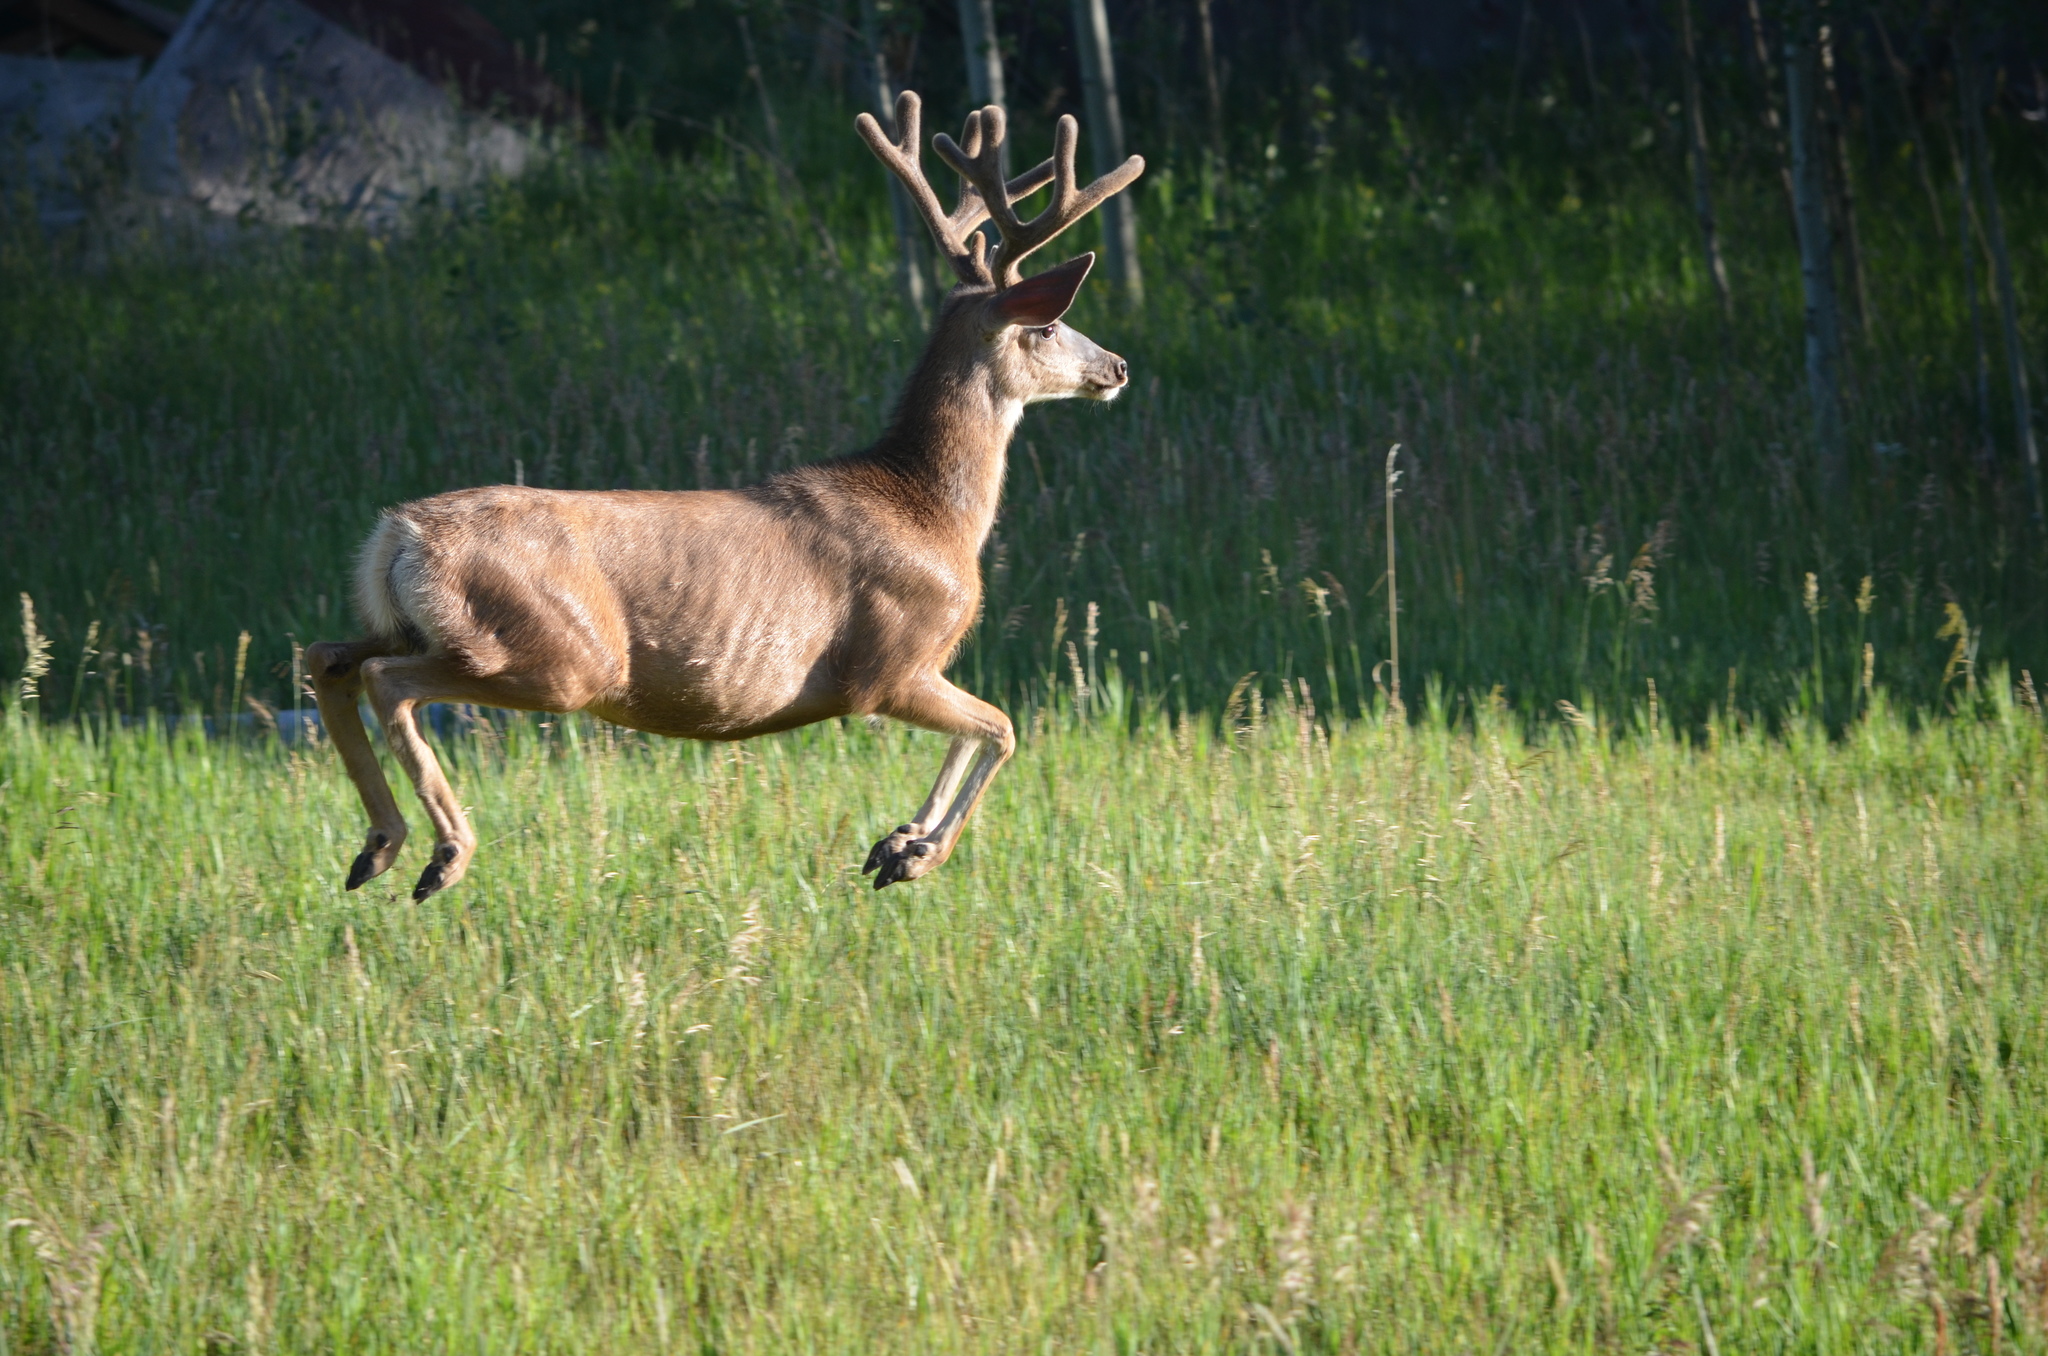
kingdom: Animalia
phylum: Chordata
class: Mammalia
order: Artiodactyla
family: Cervidae
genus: Odocoileus
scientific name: Odocoileus hemionus
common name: Mule deer
